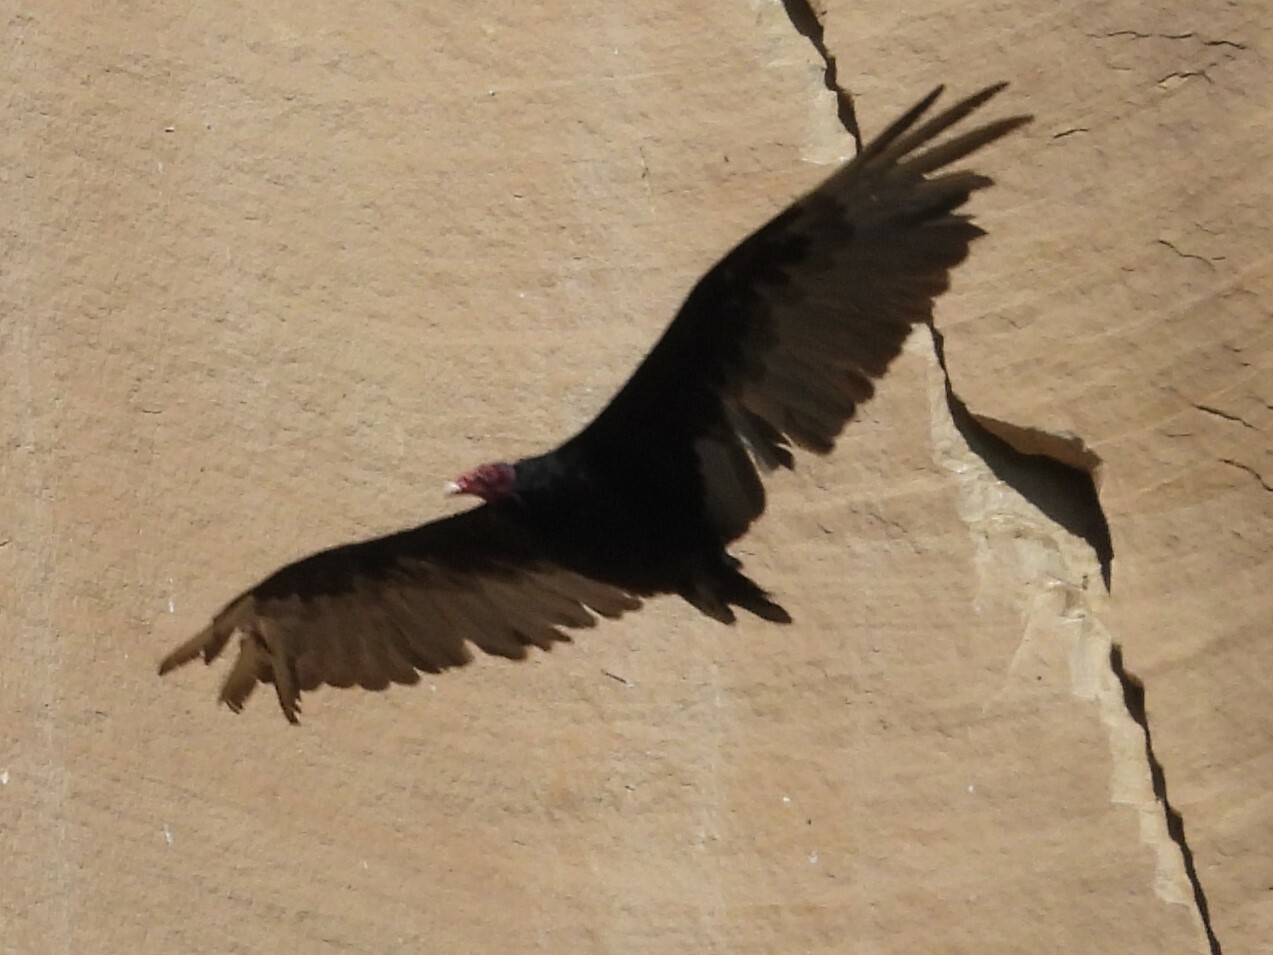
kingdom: Animalia
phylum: Chordata
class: Aves
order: Accipitriformes
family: Cathartidae
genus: Cathartes
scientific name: Cathartes aura
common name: Turkey vulture
